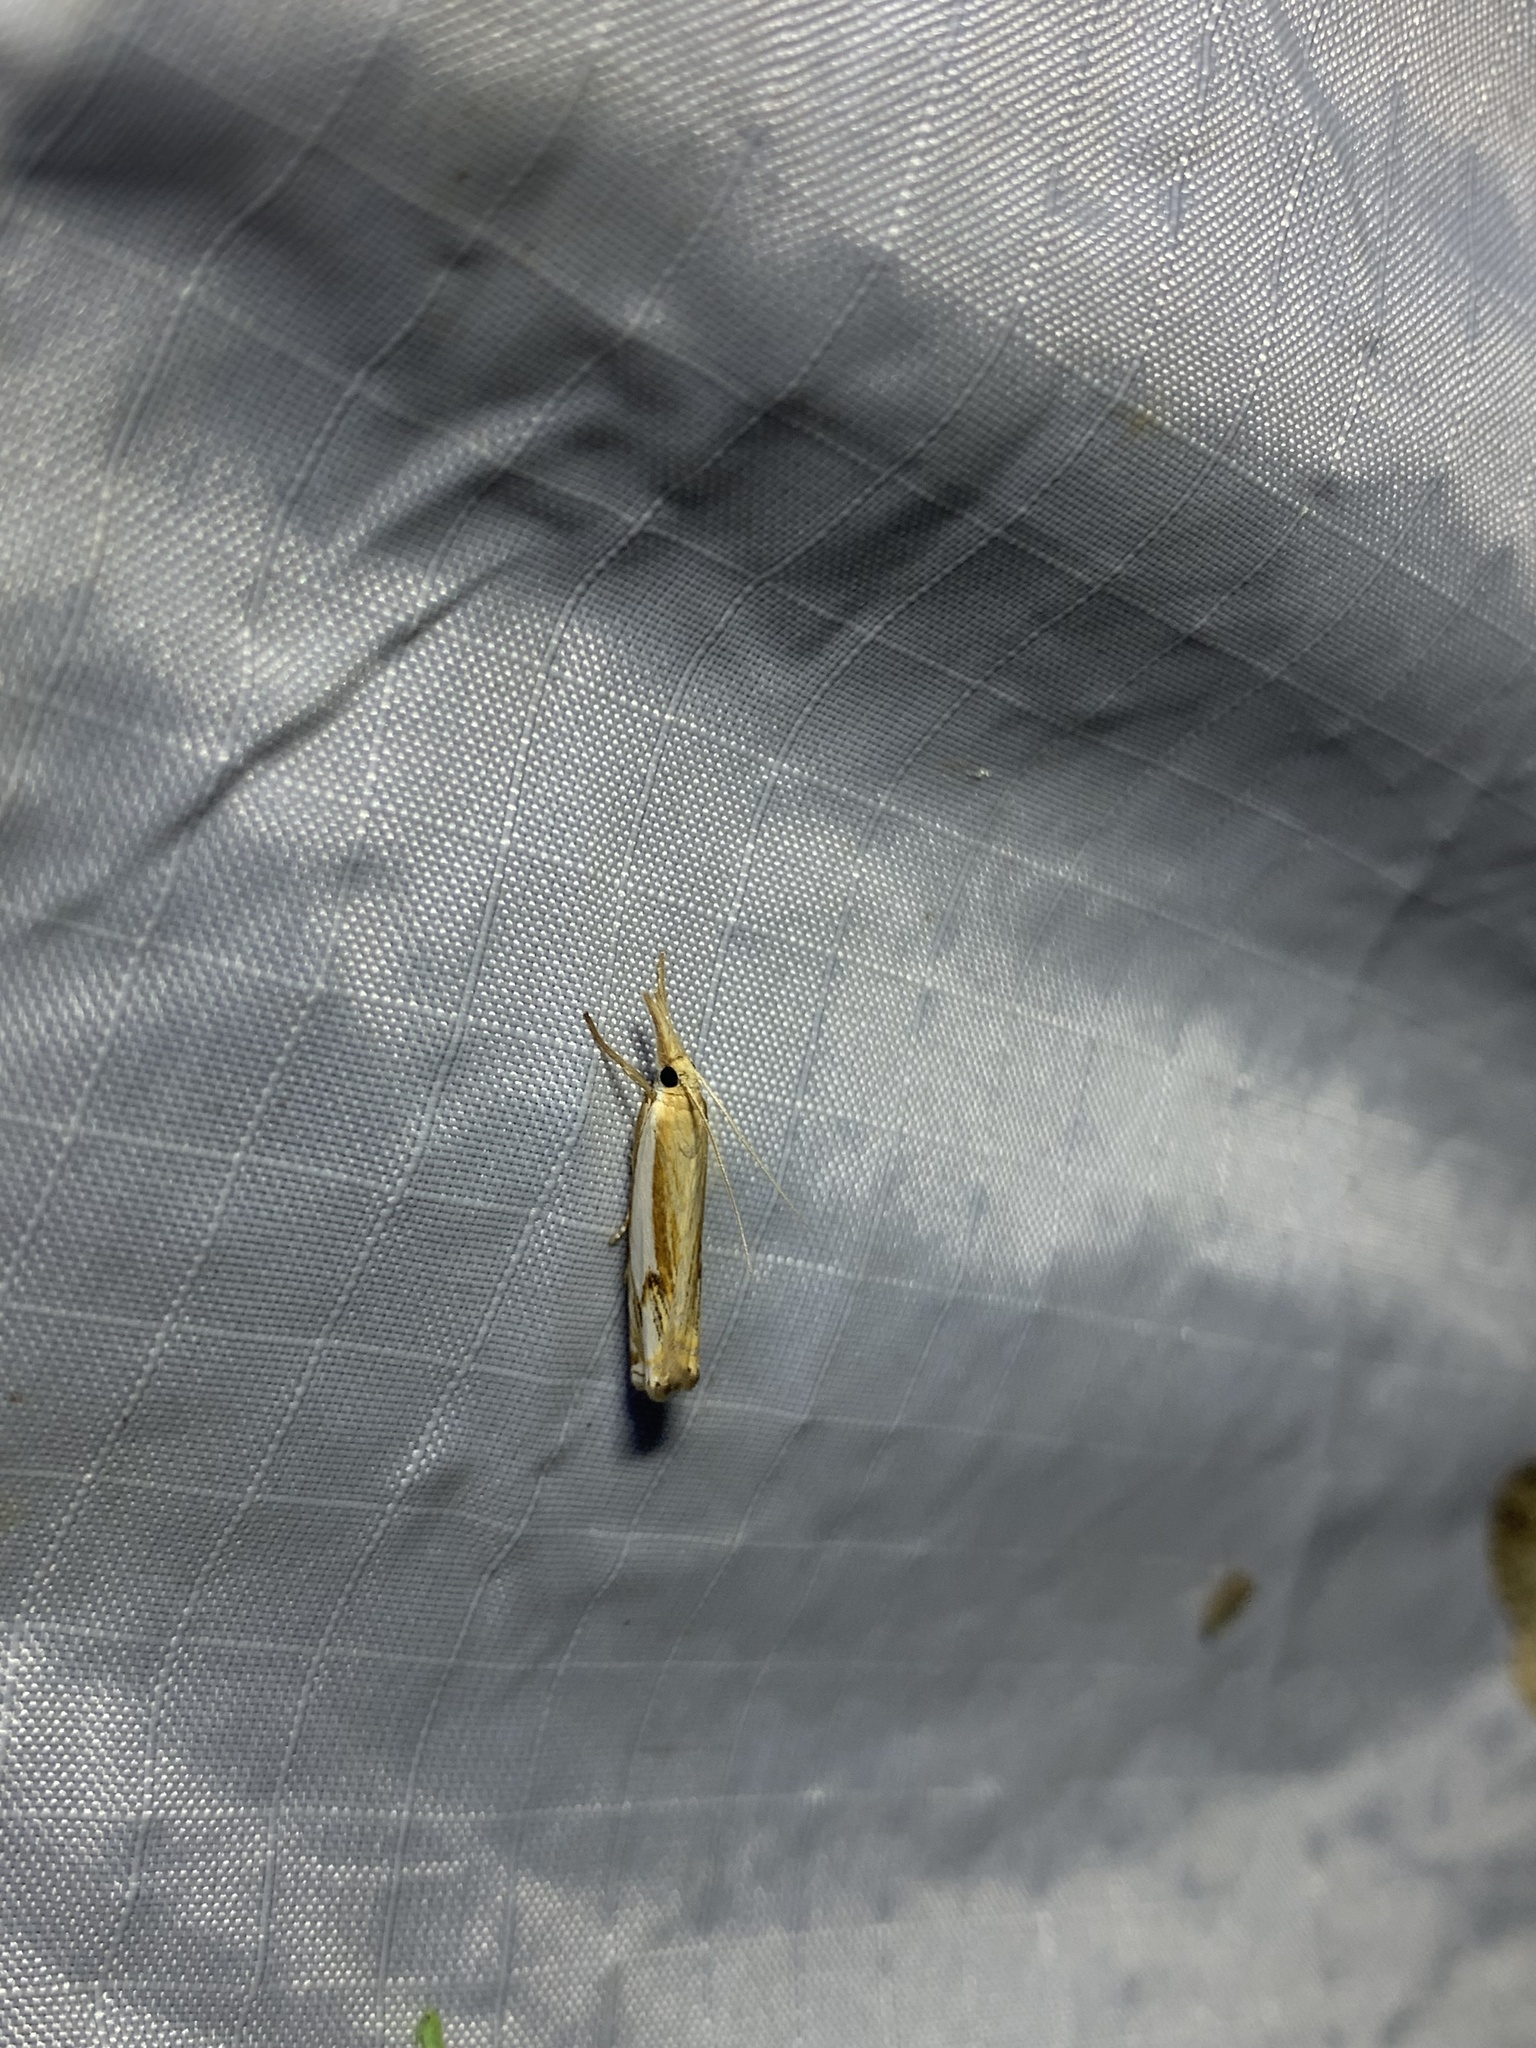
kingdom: Animalia
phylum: Arthropoda
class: Insecta
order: Lepidoptera
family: Crambidae
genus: Crambus
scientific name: Crambus agitatellus
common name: Double-banded grass-veneer
